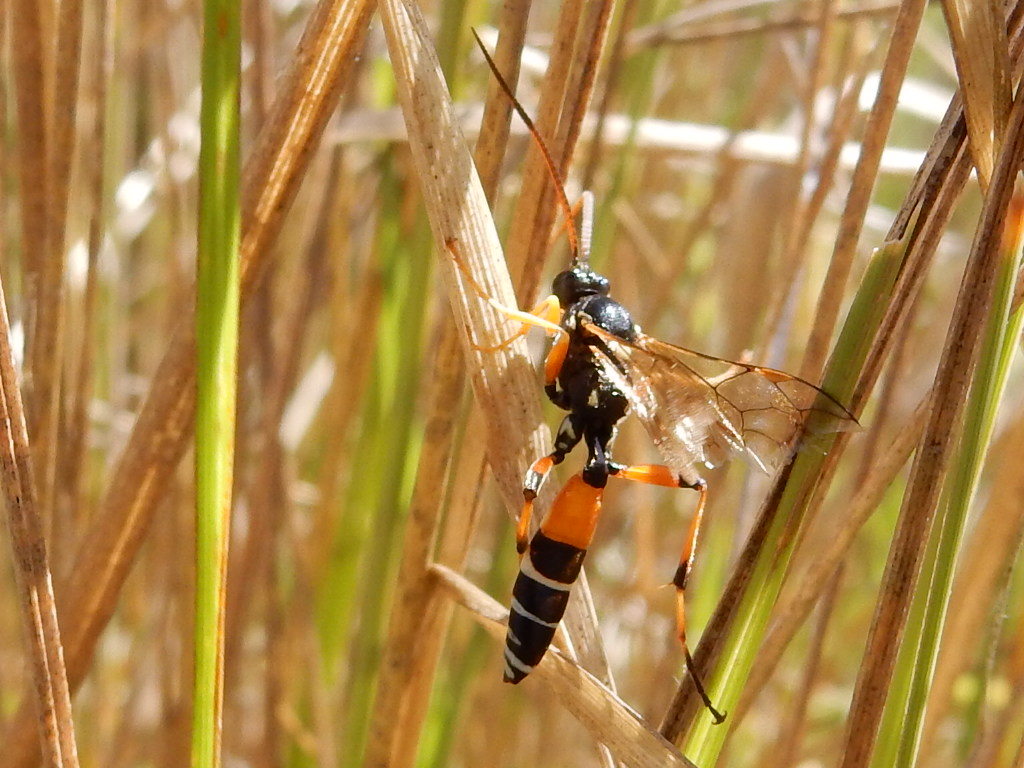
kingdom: Animalia
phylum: Arthropoda
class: Insecta
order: Hymenoptera
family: Ichneumonidae
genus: Ichneumon
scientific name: Ichneumon promissorius
